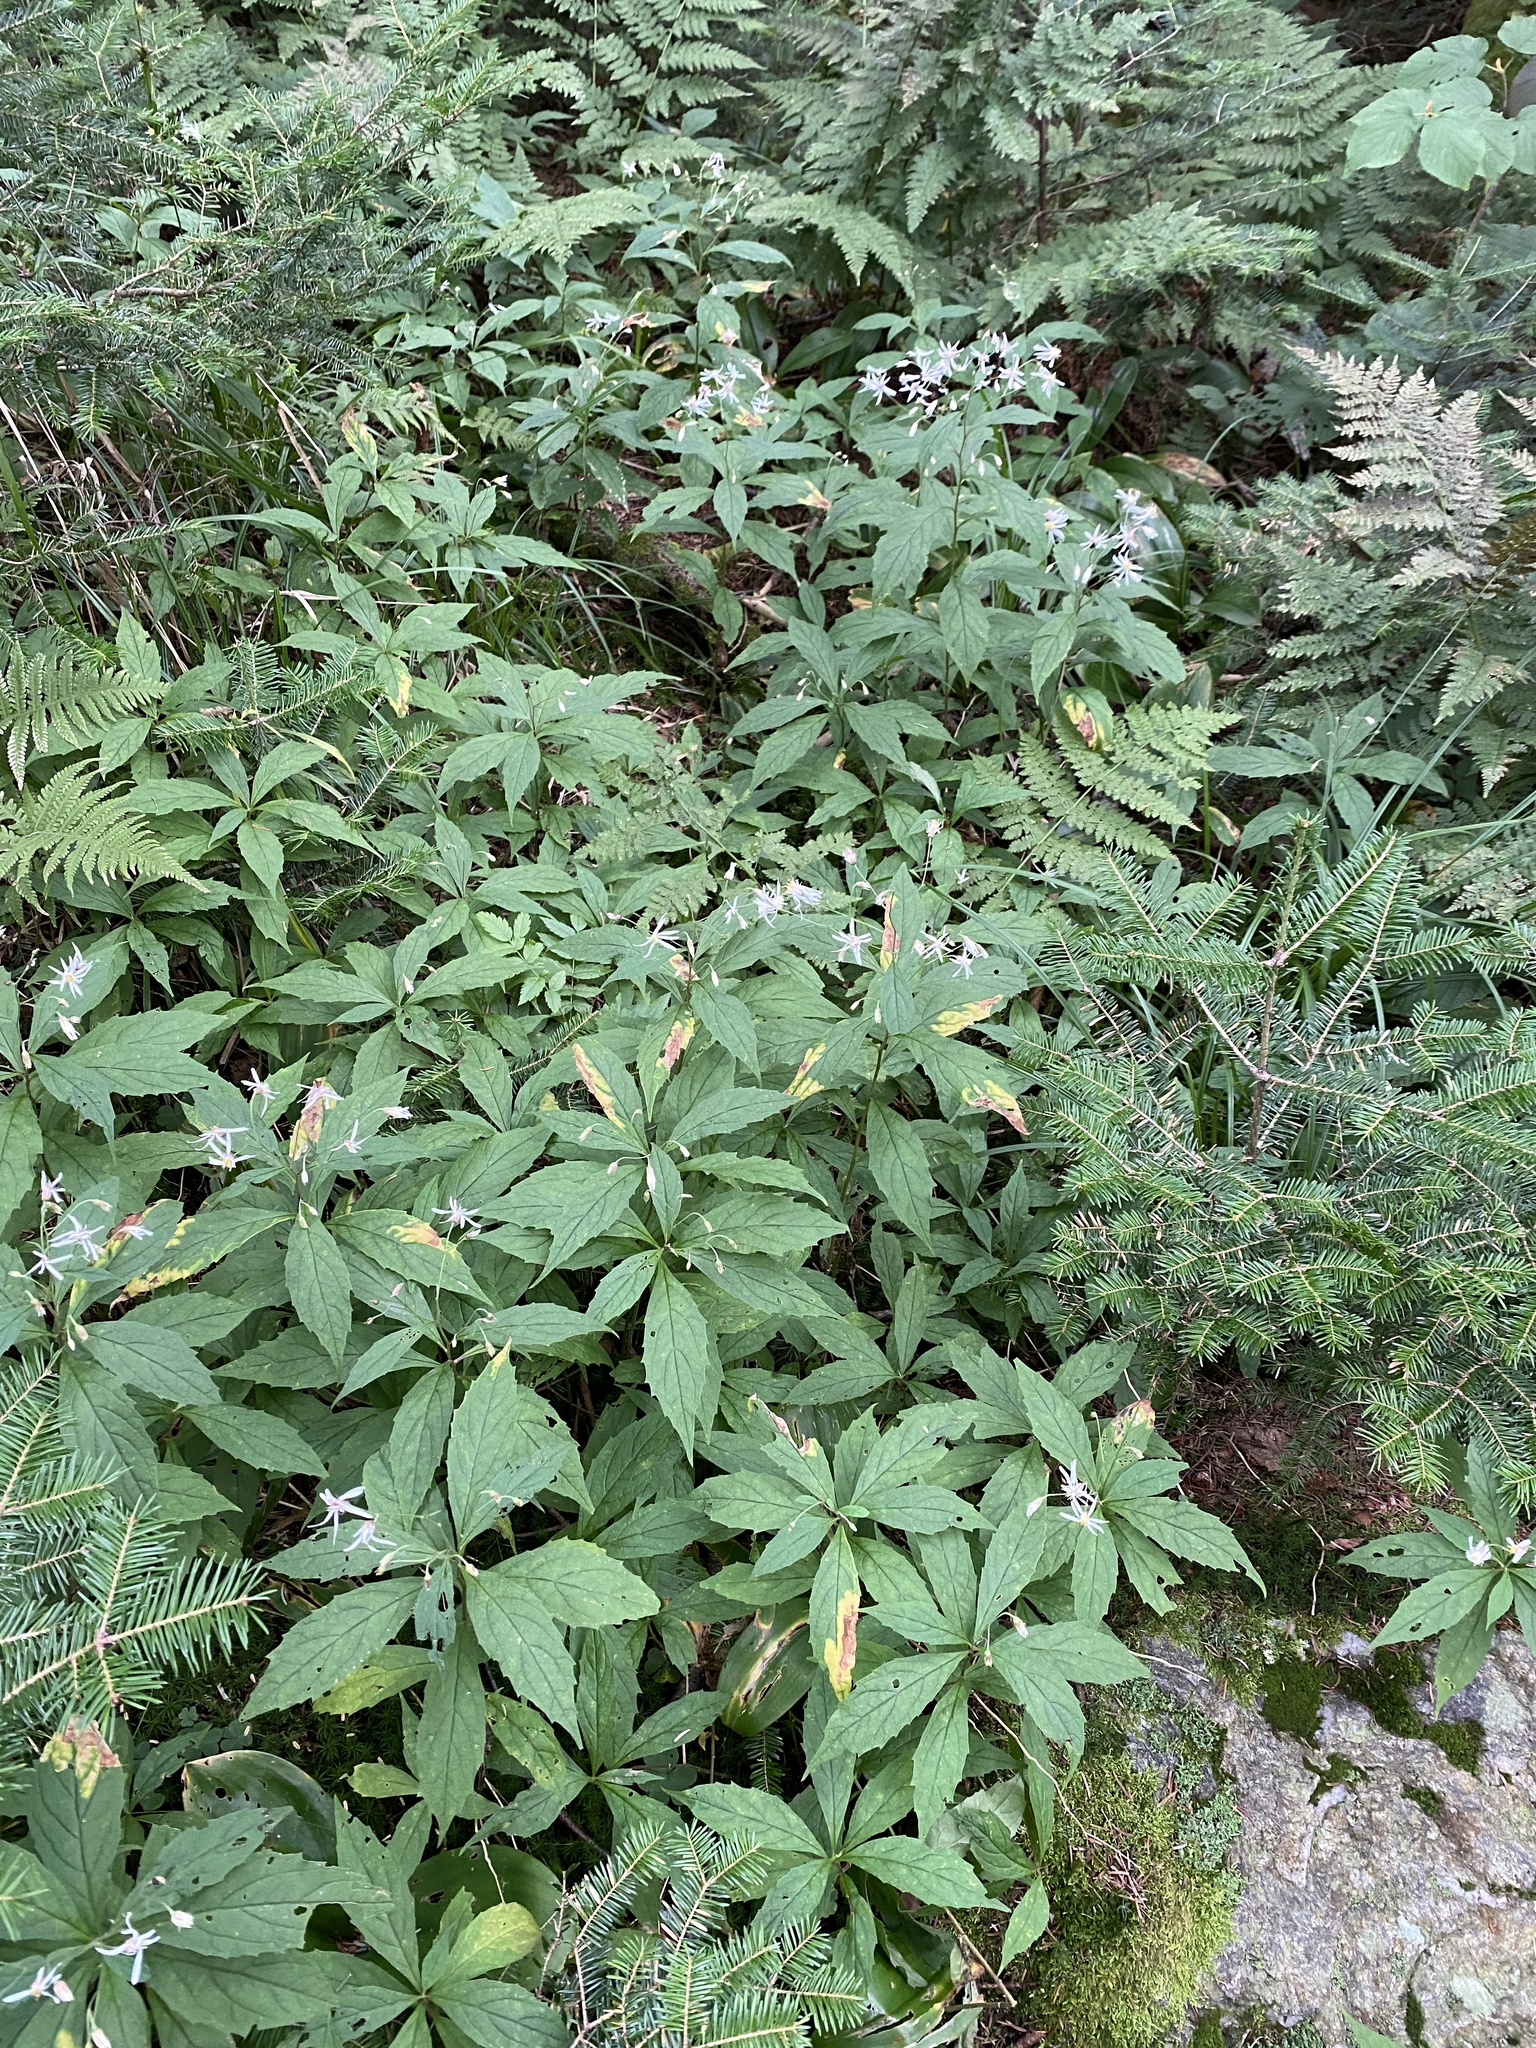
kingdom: Plantae
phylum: Tracheophyta
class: Magnoliopsida
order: Asterales
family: Asteraceae
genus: Oclemena
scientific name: Oclemena acuminata
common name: Mountain aster
